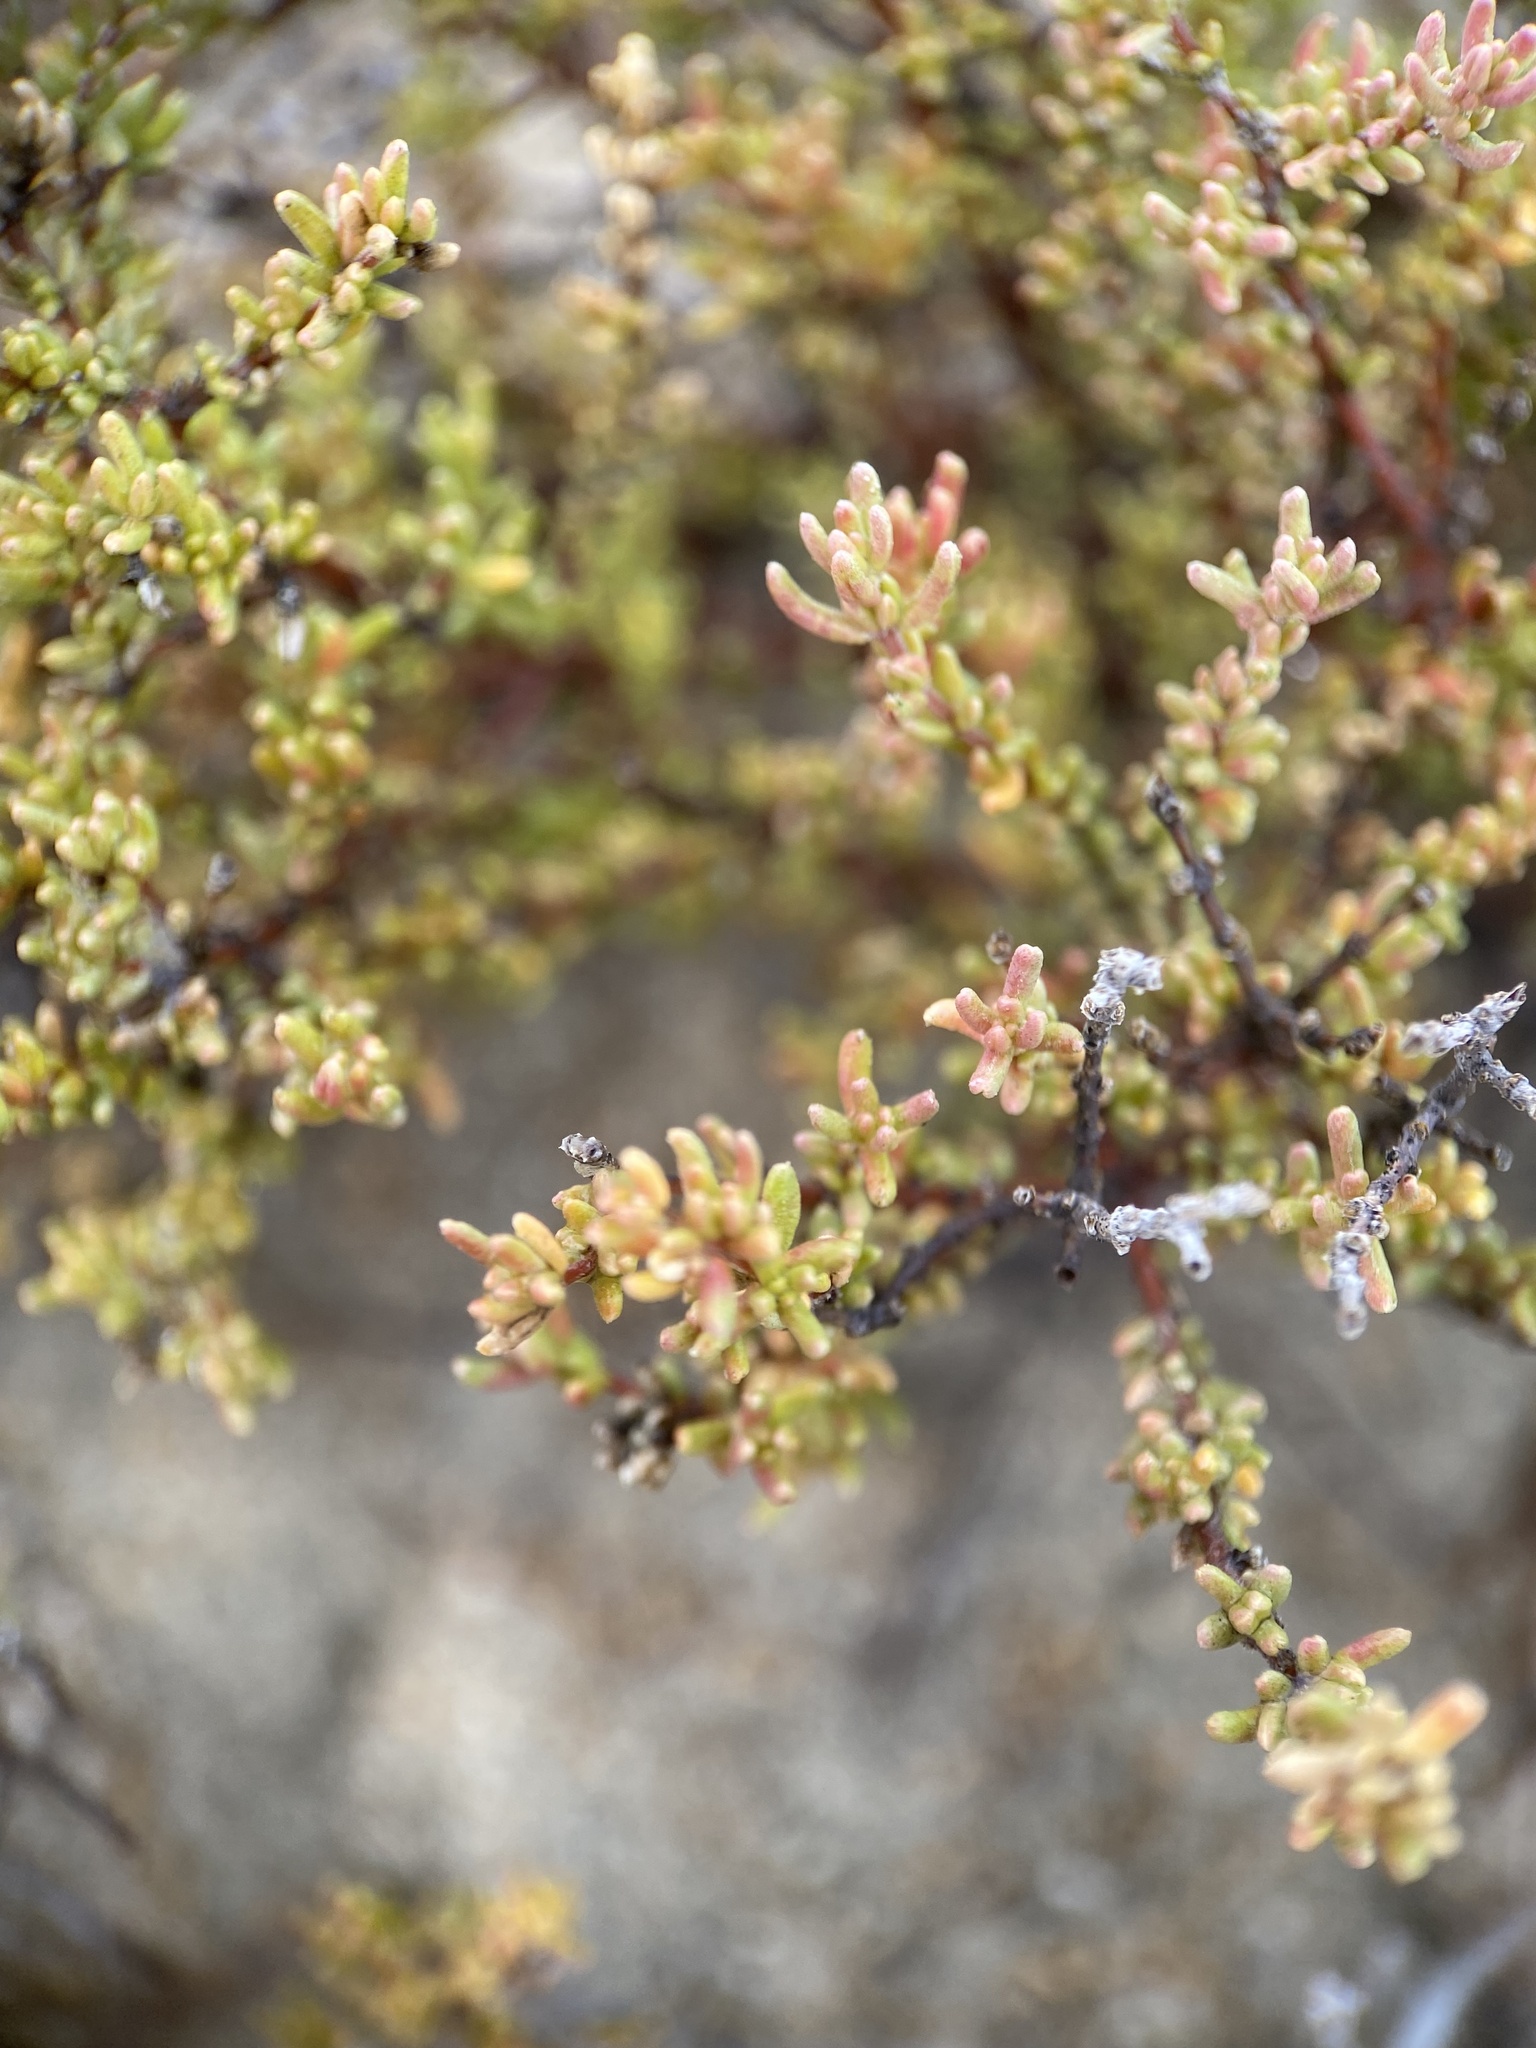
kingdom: Plantae
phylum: Tracheophyta
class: Magnoliopsida
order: Caryophyllales
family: Frankeniaceae
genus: Frankenia
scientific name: Frankenia palmeri
